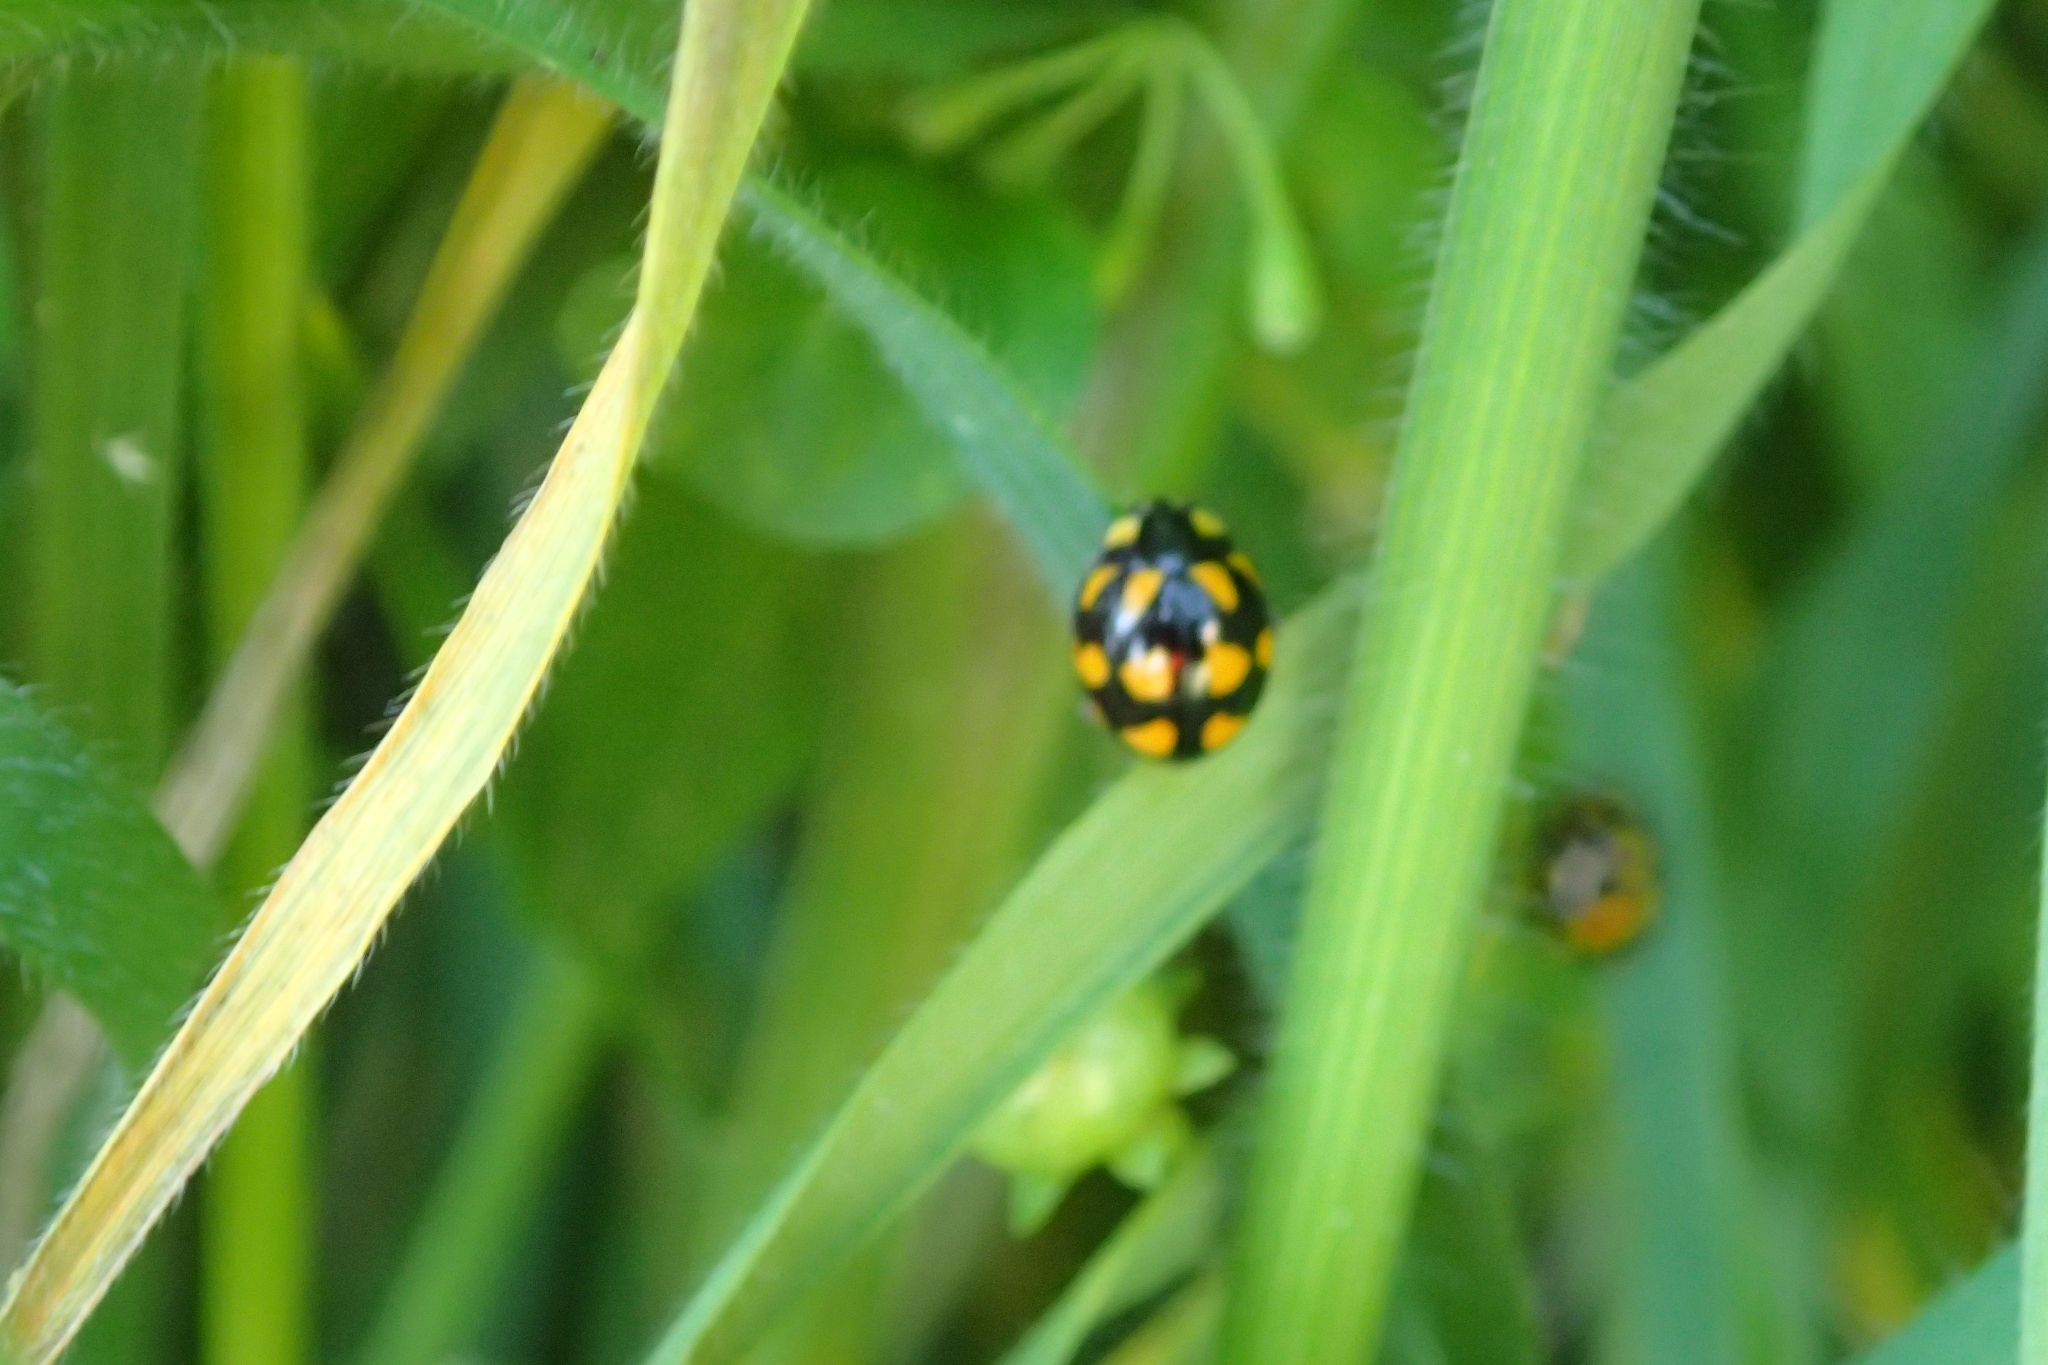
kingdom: Animalia
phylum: Arthropoda
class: Insecta
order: Coleoptera
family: Coccinellidae
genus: Coccinella
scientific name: Coccinella leonina
